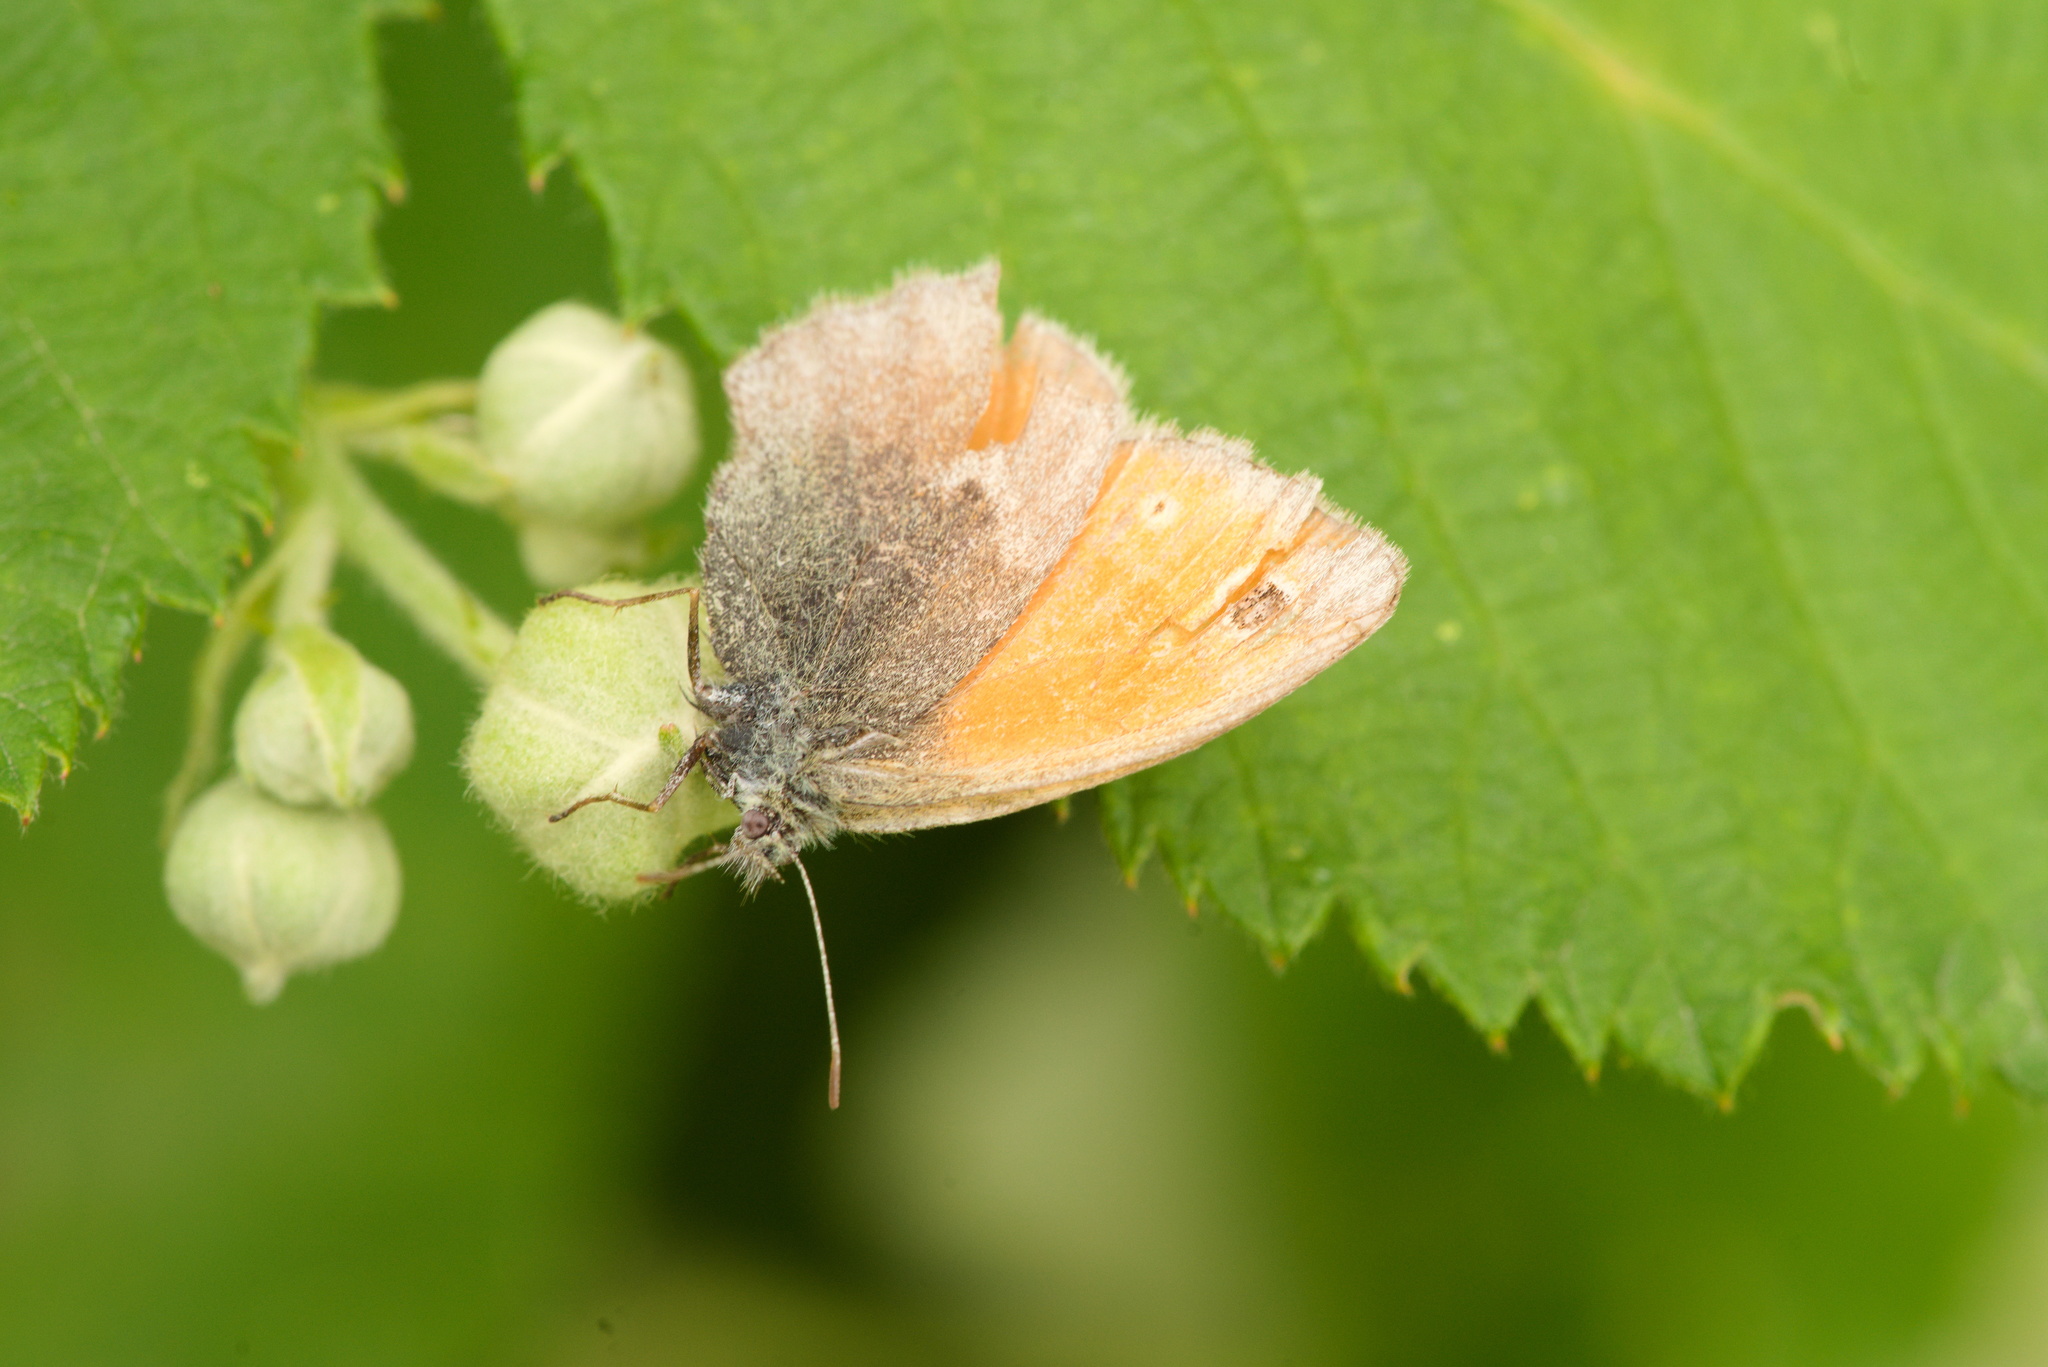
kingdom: Animalia
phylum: Arthropoda
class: Insecta
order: Lepidoptera
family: Nymphalidae
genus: Coenonympha
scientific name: Coenonympha pamphilus
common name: Small heath
